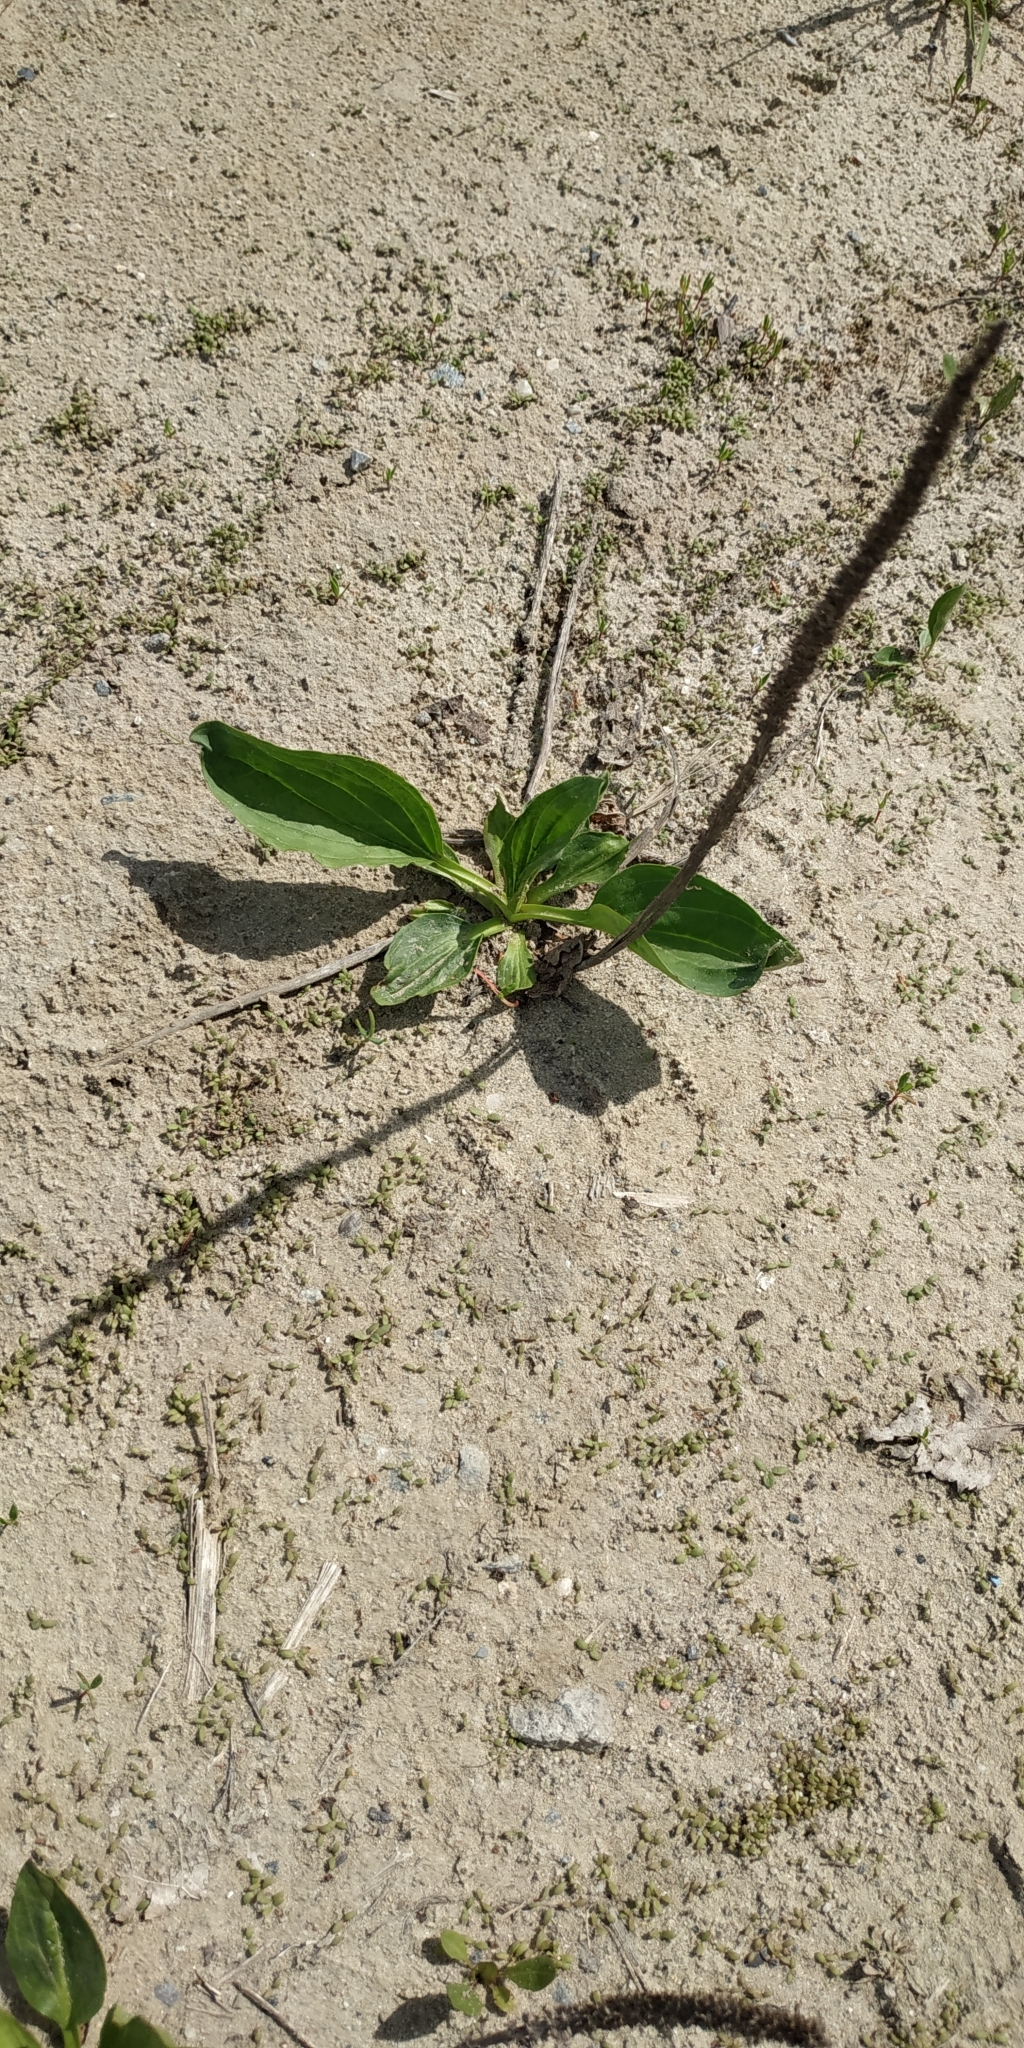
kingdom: Plantae
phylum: Tracheophyta
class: Magnoliopsida
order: Lamiales
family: Plantaginaceae
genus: Plantago
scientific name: Plantago major
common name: Common plantain
